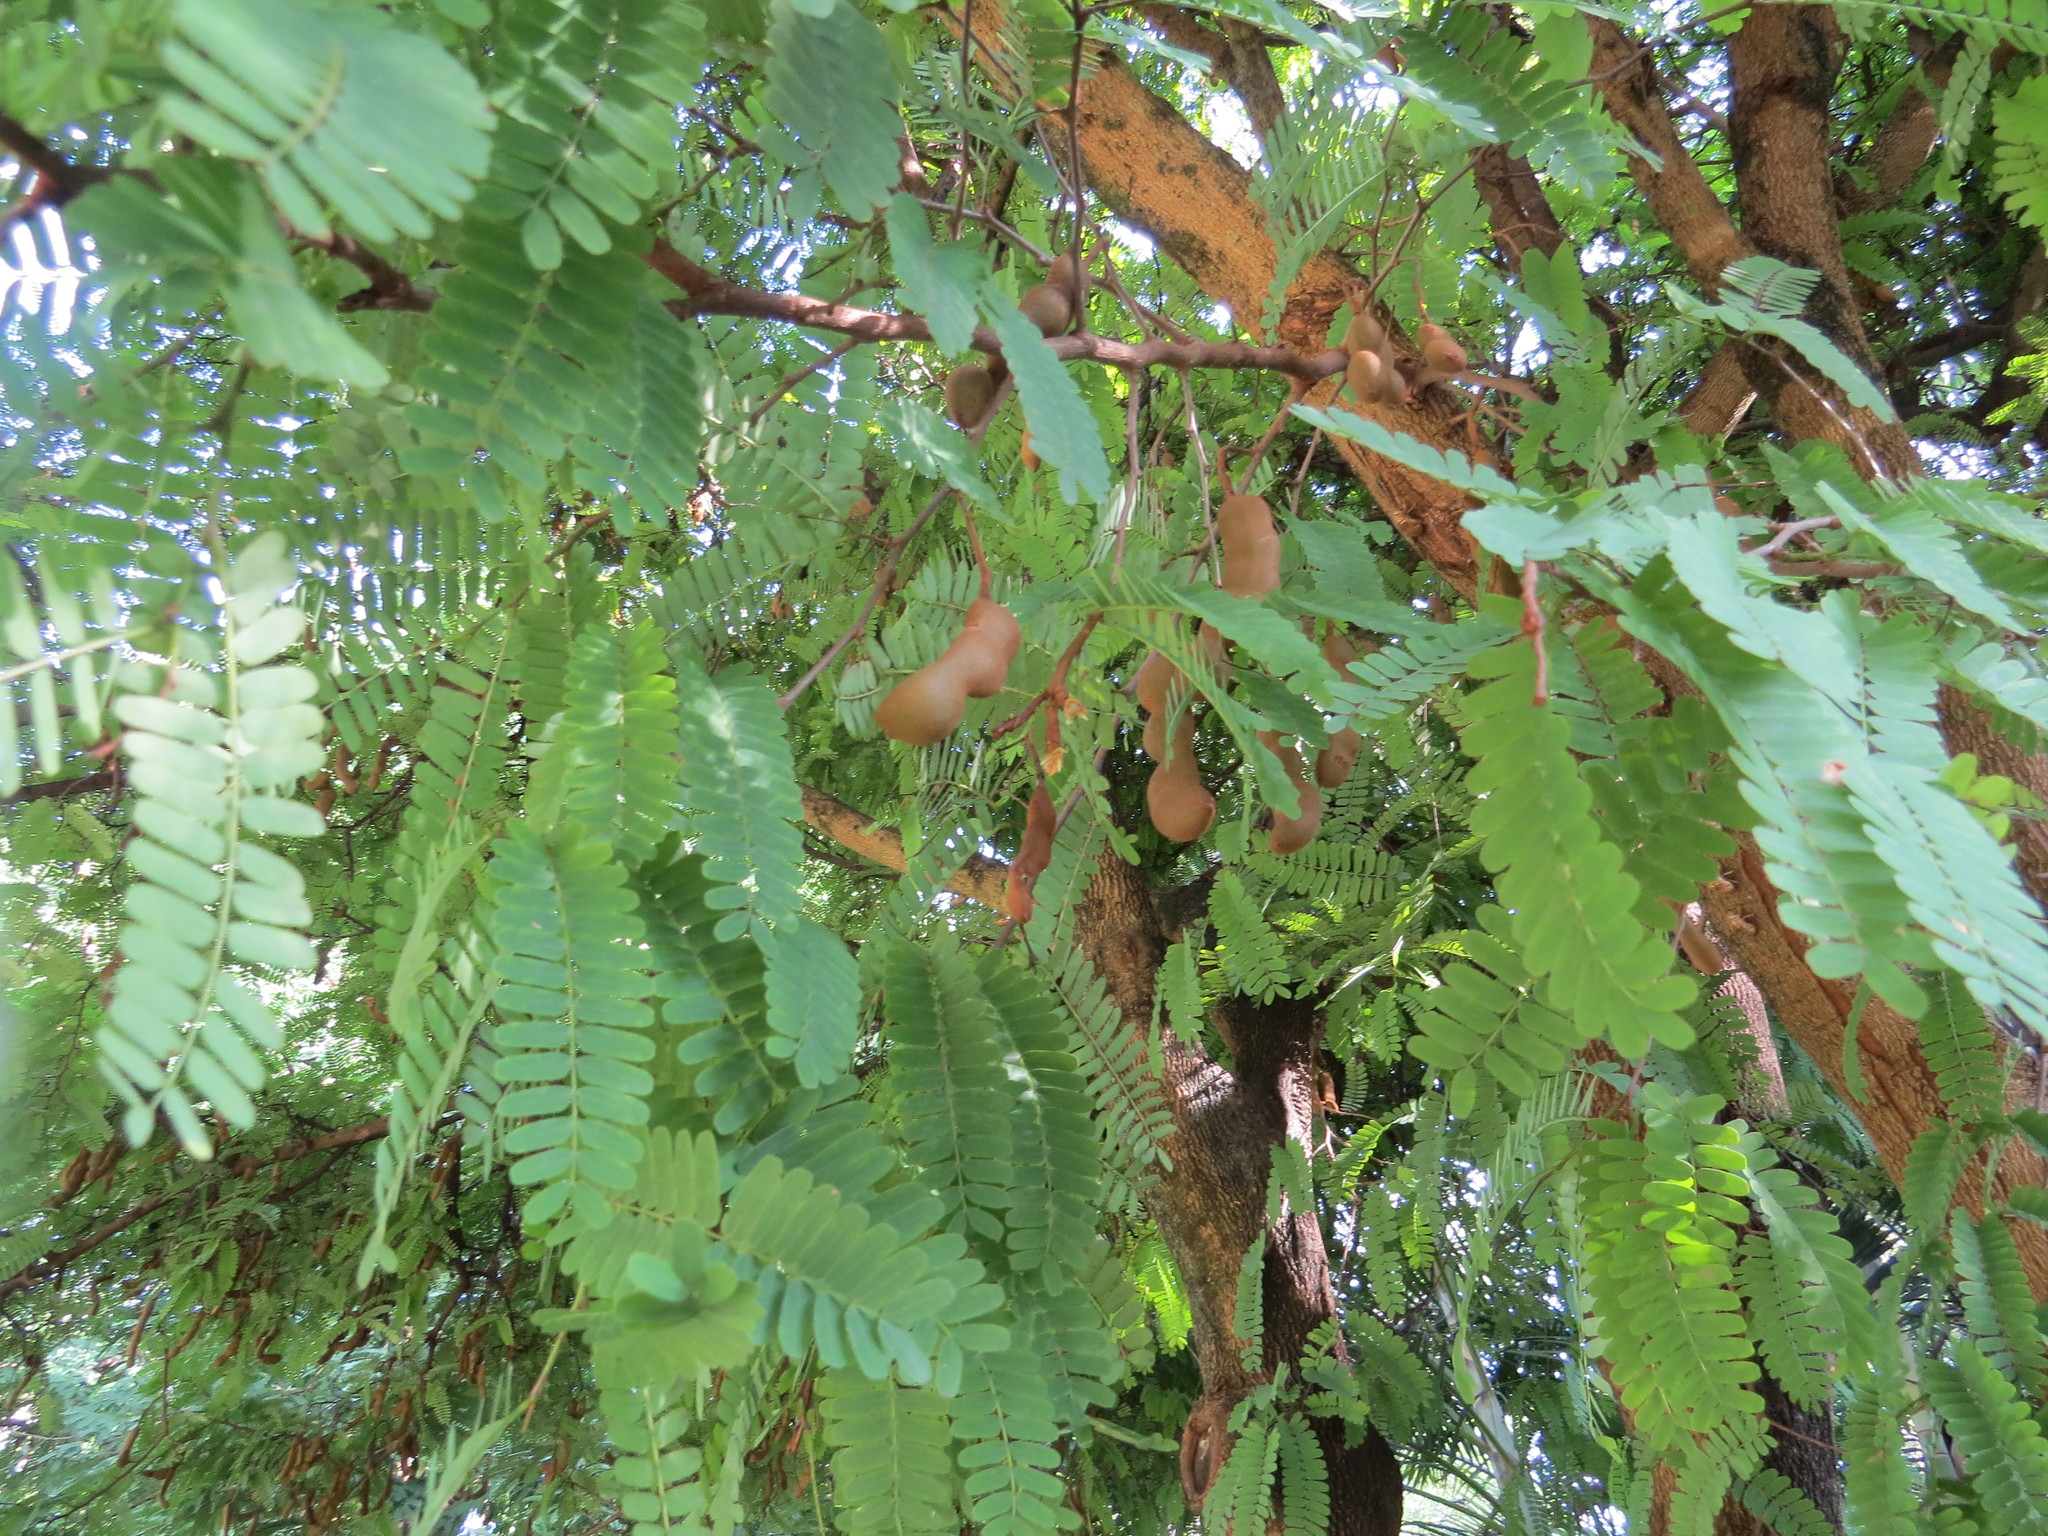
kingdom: Plantae
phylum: Tracheophyta
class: Magnoliopsida
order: Fabales
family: Fabaceae
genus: Tamarindus
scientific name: Tamarindus indica
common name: Tamarind
